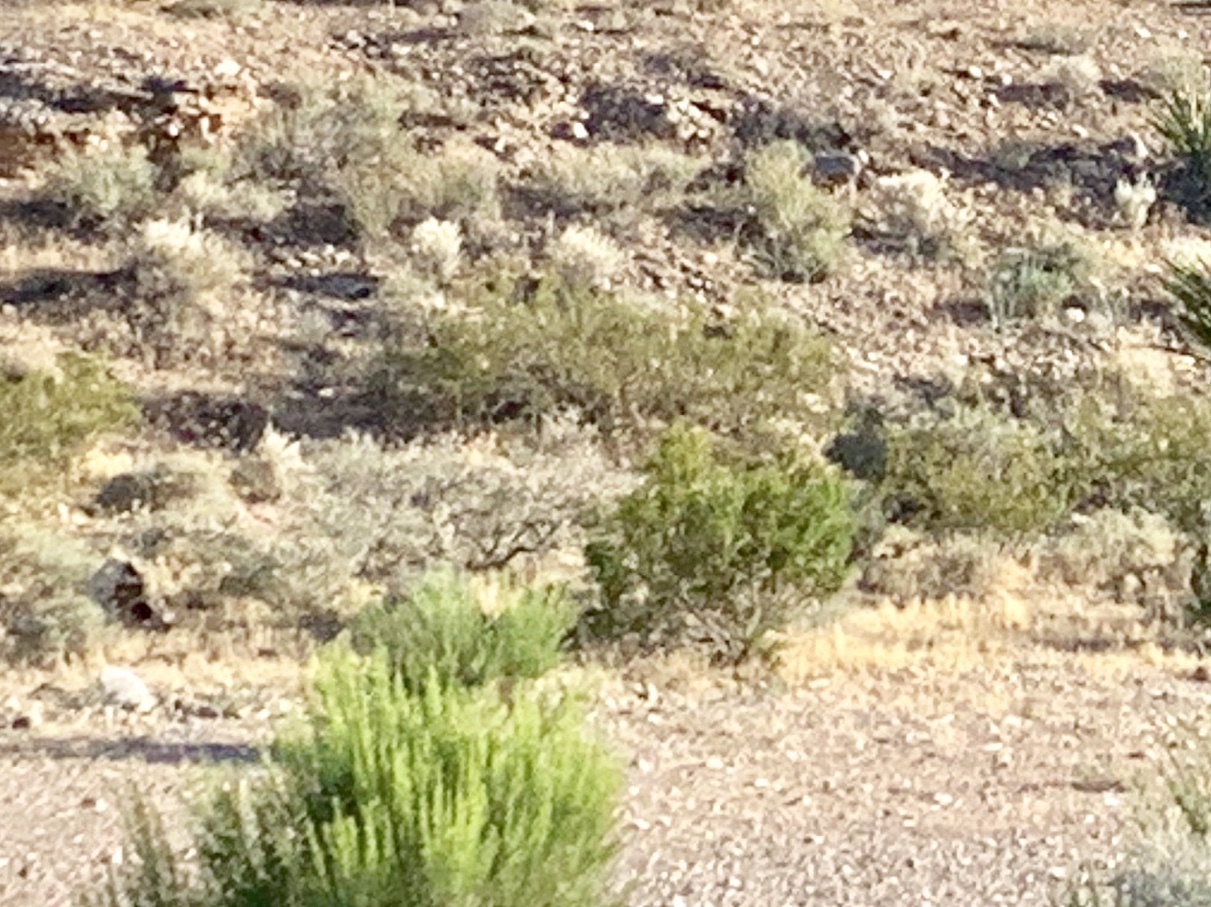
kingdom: Plantae
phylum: Tracheophyta
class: Magnoliopsida
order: Zygophyllales
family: Zygophyllaceae
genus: Larrea
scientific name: Larrea tridentata
